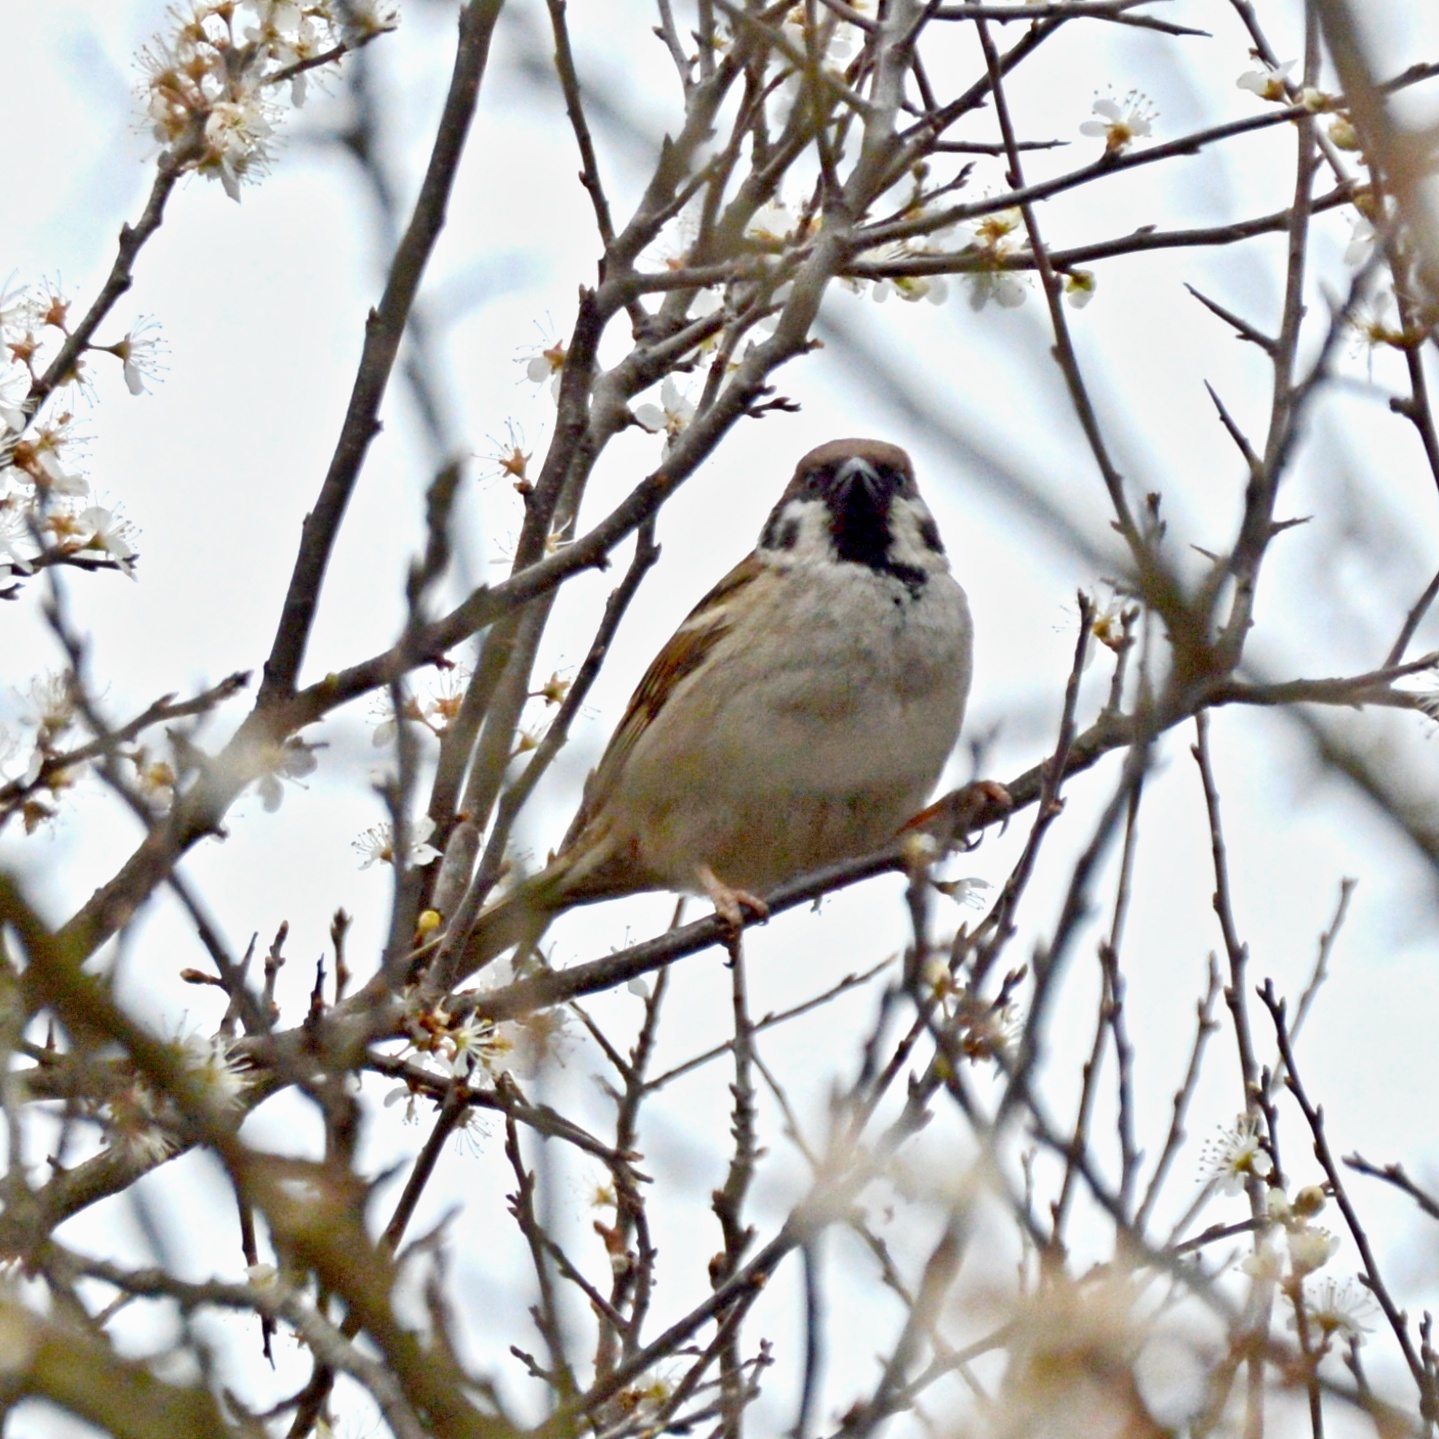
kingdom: Animalia
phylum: Chordata
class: Aves
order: Passeriformes
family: Passeridae
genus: Passer
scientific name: Passer montanus
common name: Eurasian tree sparrow
